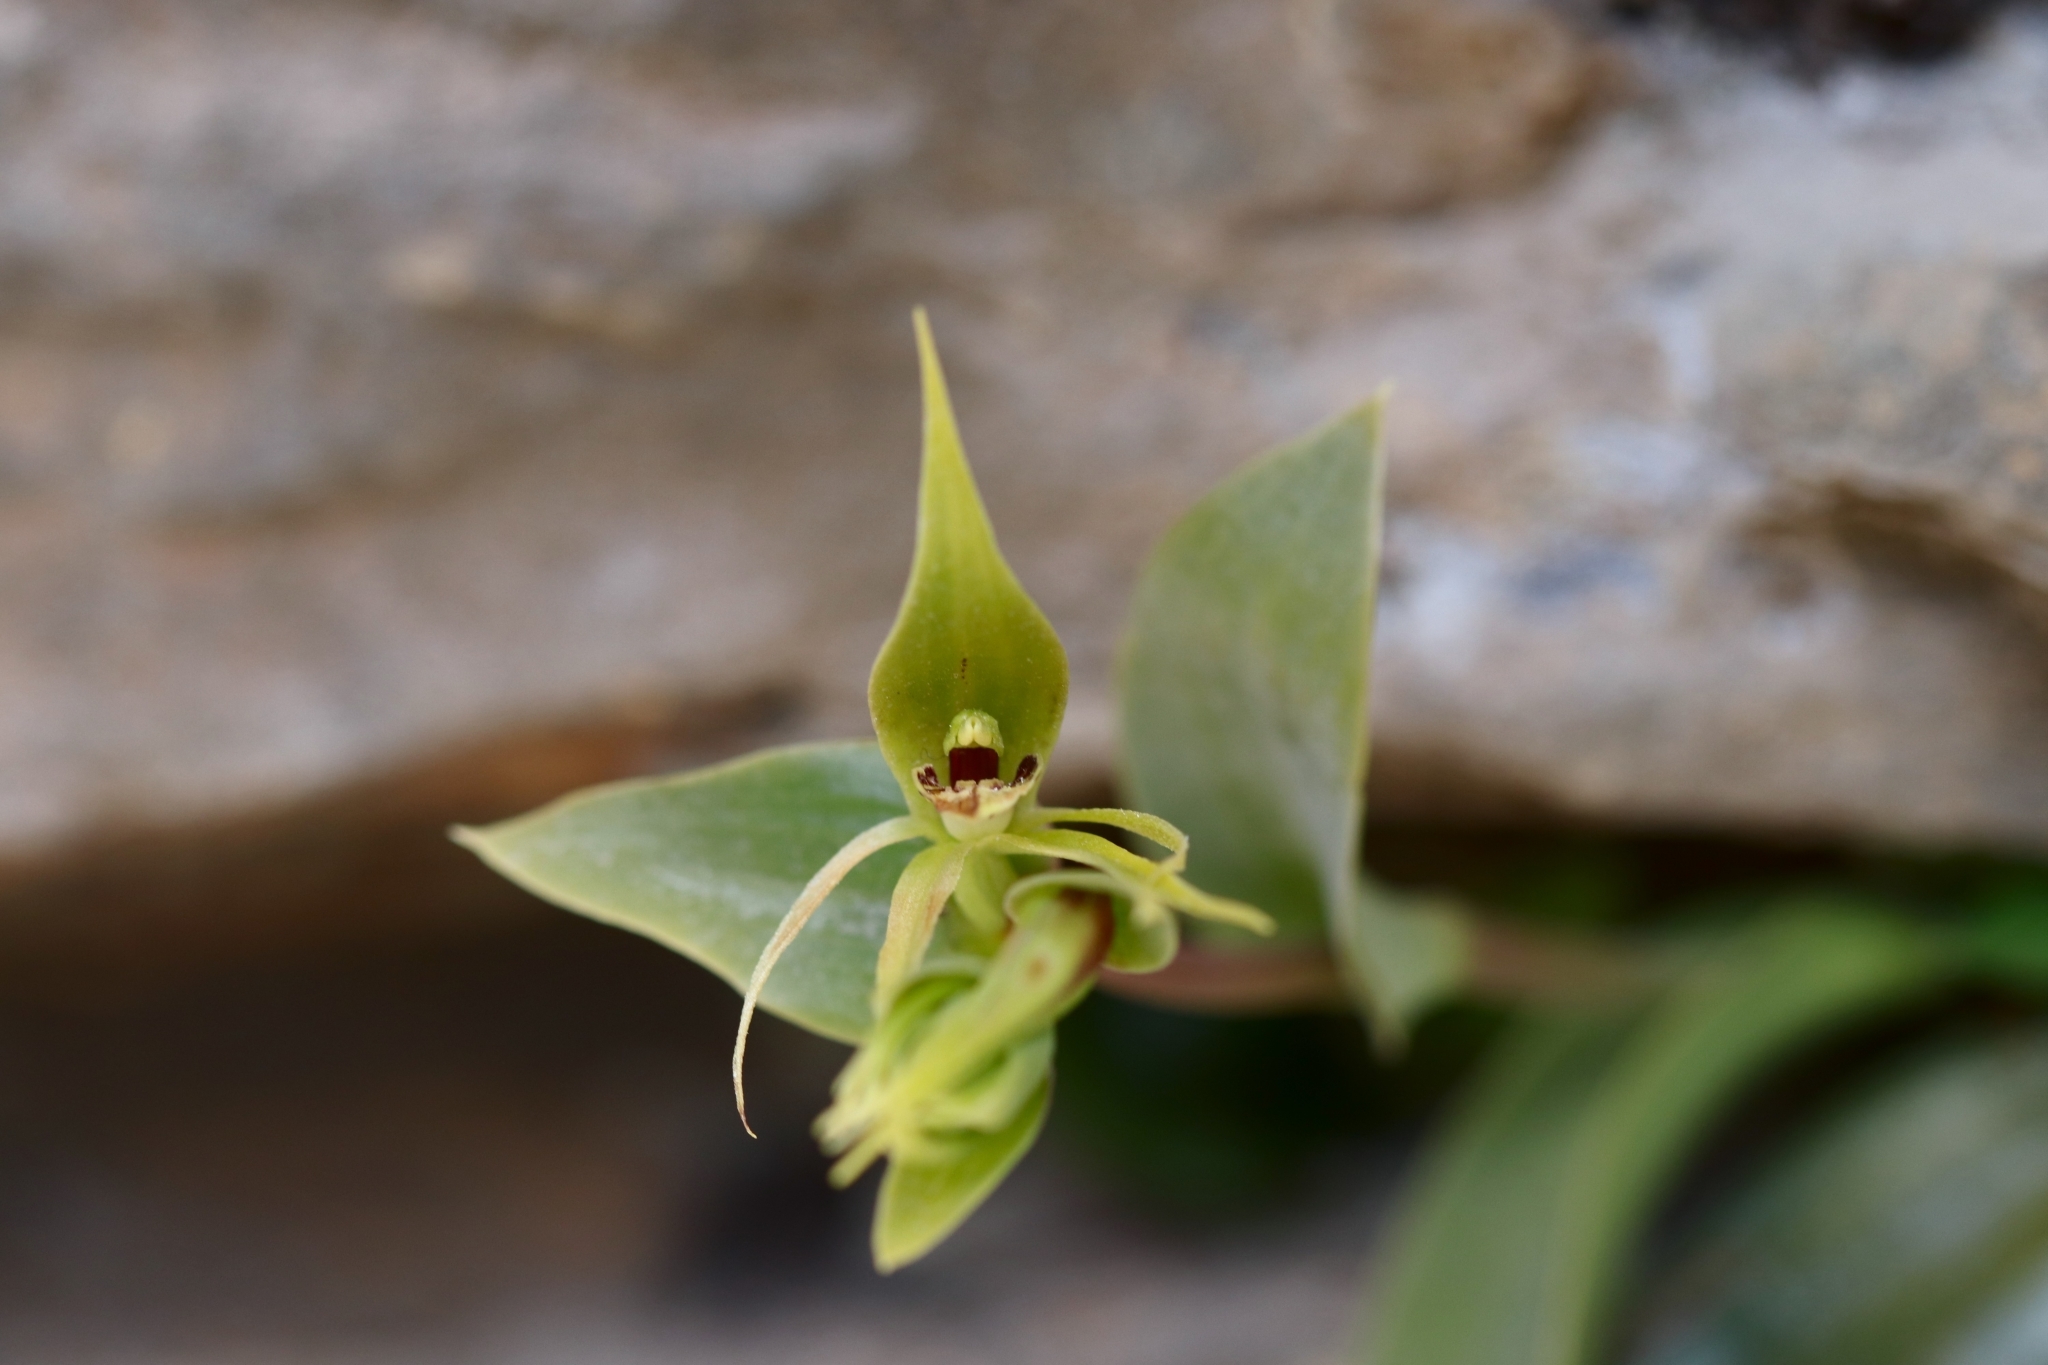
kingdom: Plantae
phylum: Tracheophyta
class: Liliopsida
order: Asparagales
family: Orchidaceae
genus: Rimacola
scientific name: Rimacola elliptica
